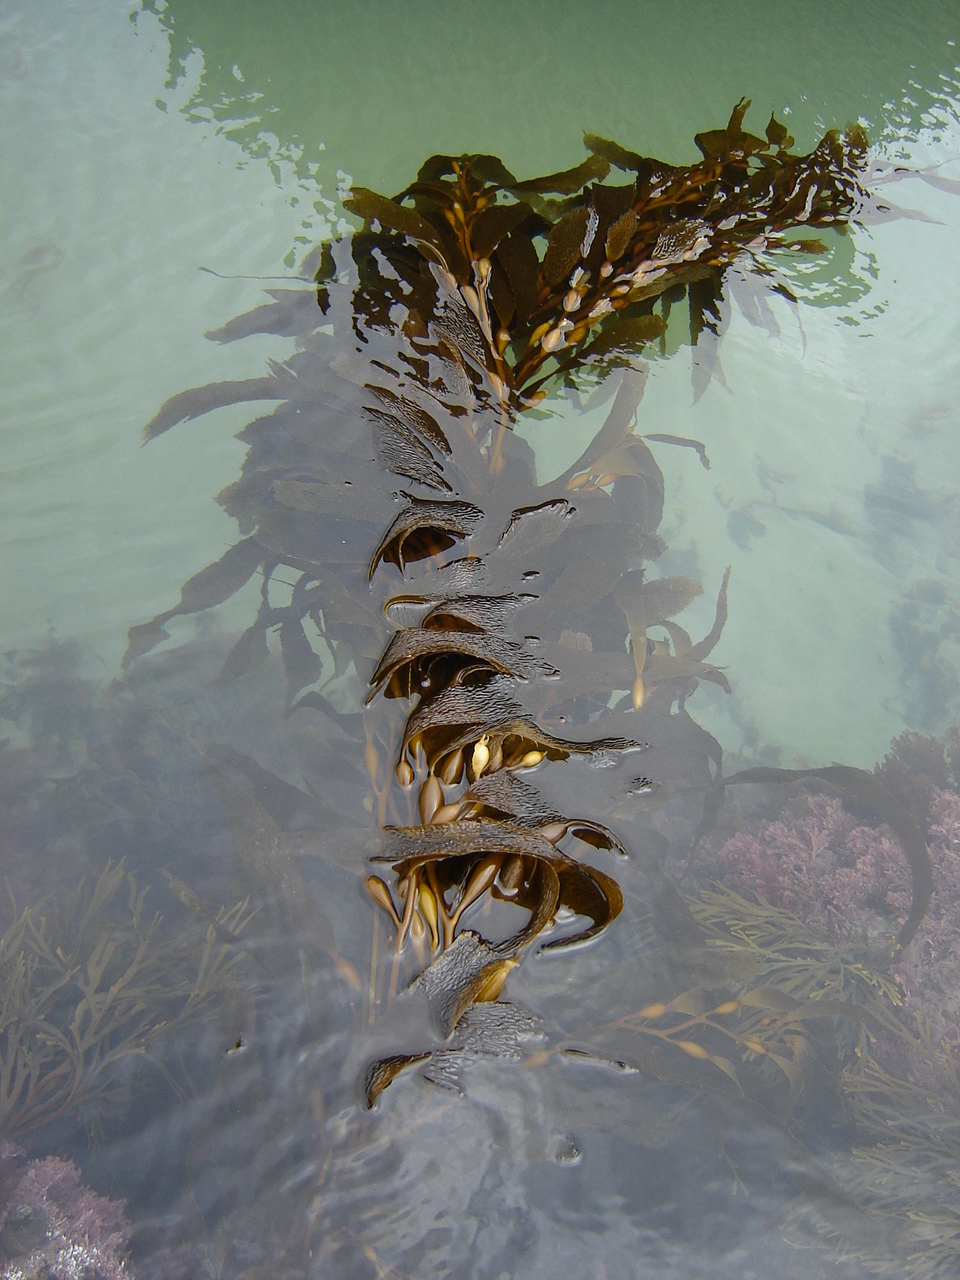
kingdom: Chromista
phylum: Ochrophyta
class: Phaeophyceae
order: Laminariales
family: Laminariaceae
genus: Macrocystis
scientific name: Macrocystis pyrifera
